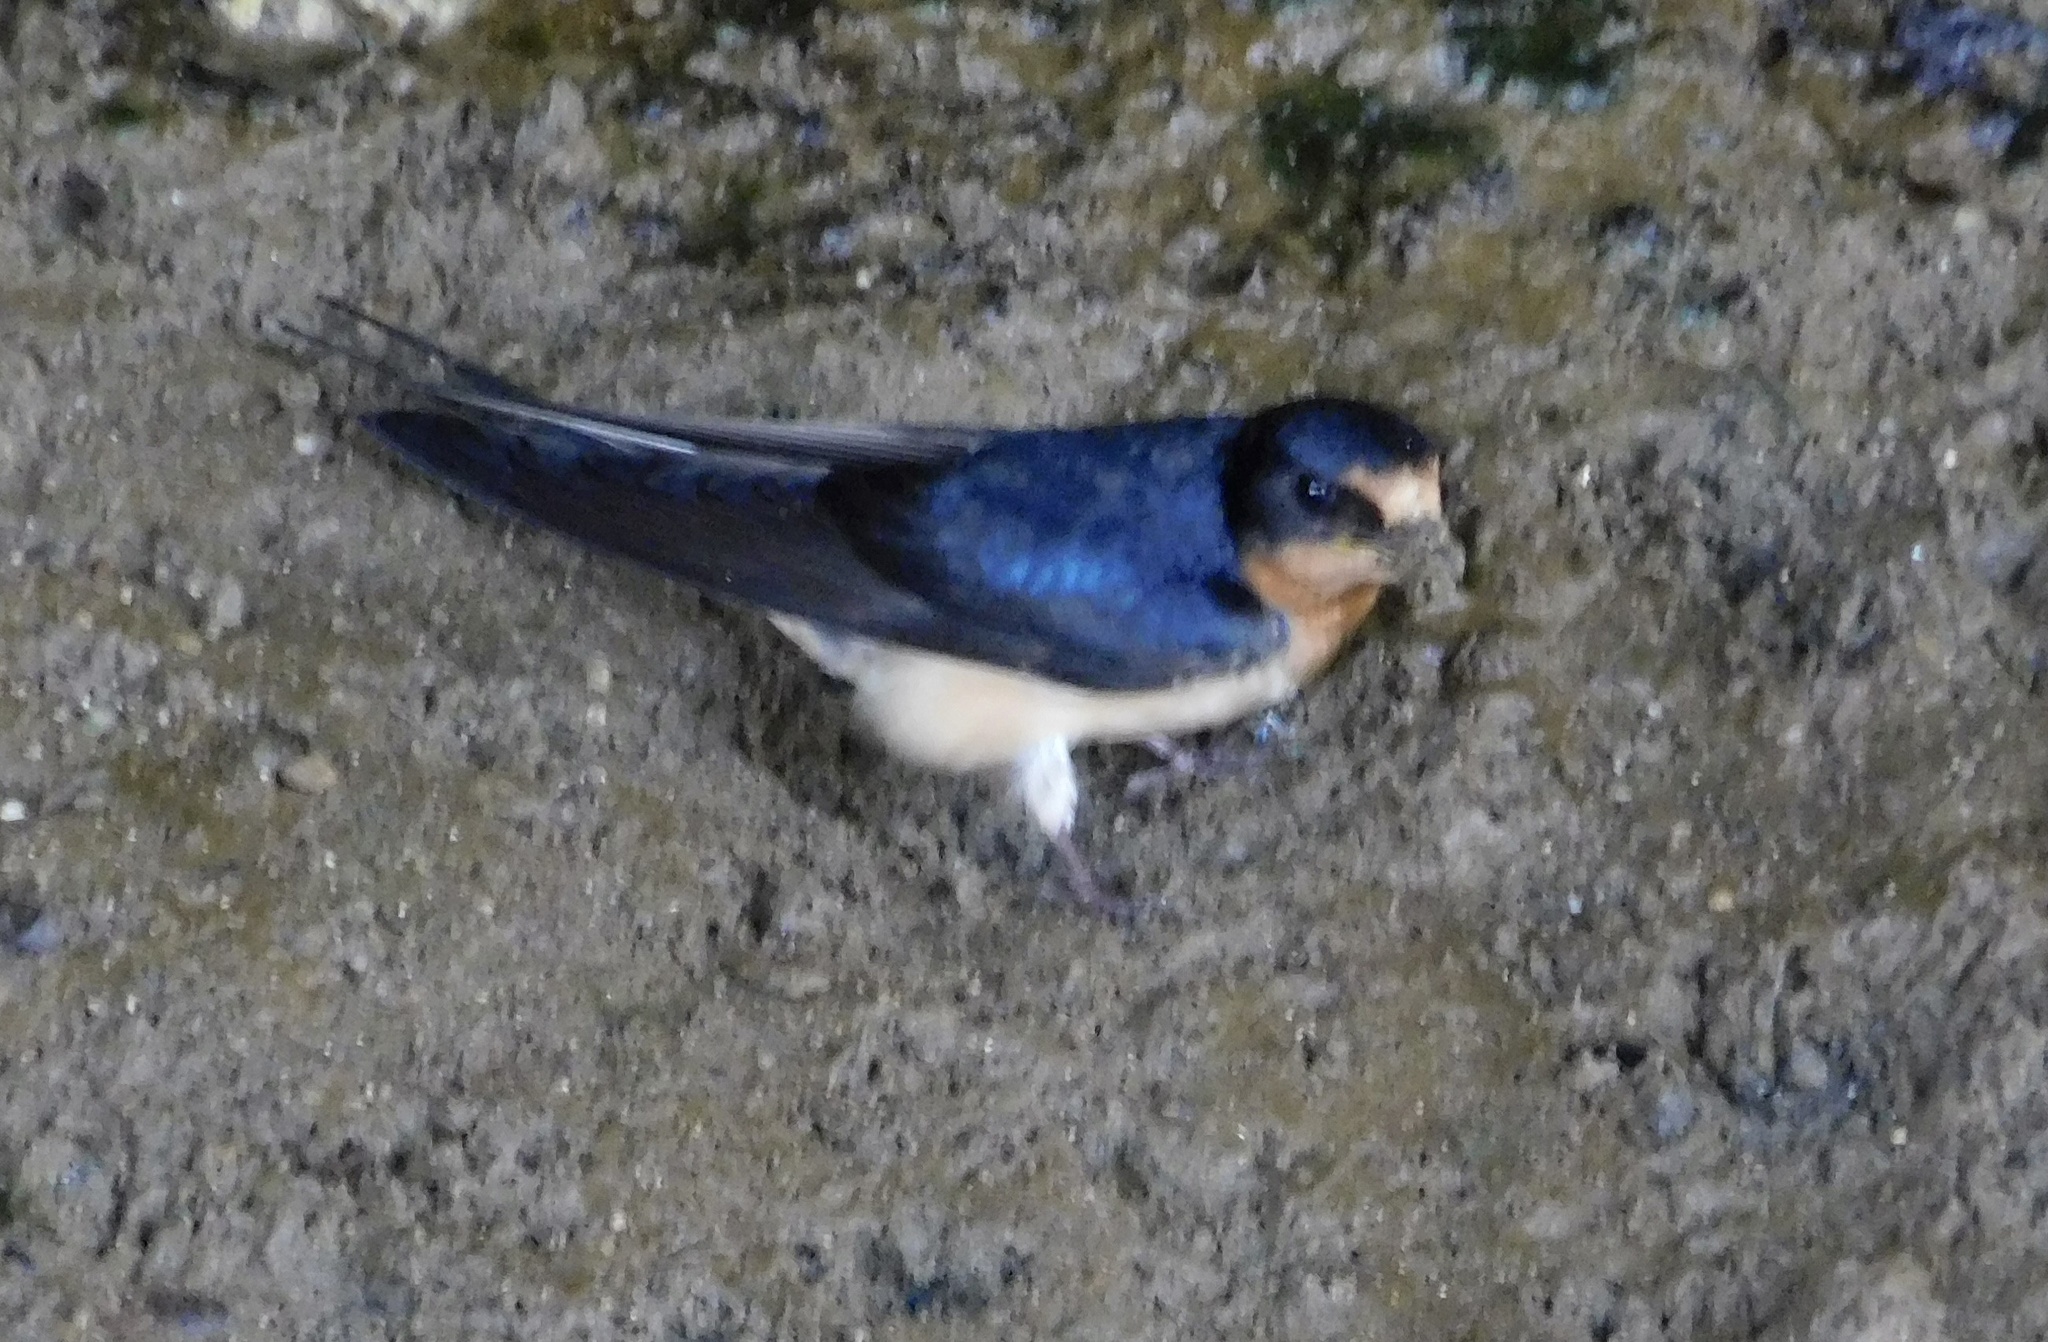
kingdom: Animalia
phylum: Chordata
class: Aves
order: Passeriformes
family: Hirundinidae
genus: Hirundo
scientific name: Hirundo rustica
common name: Barn swallow
